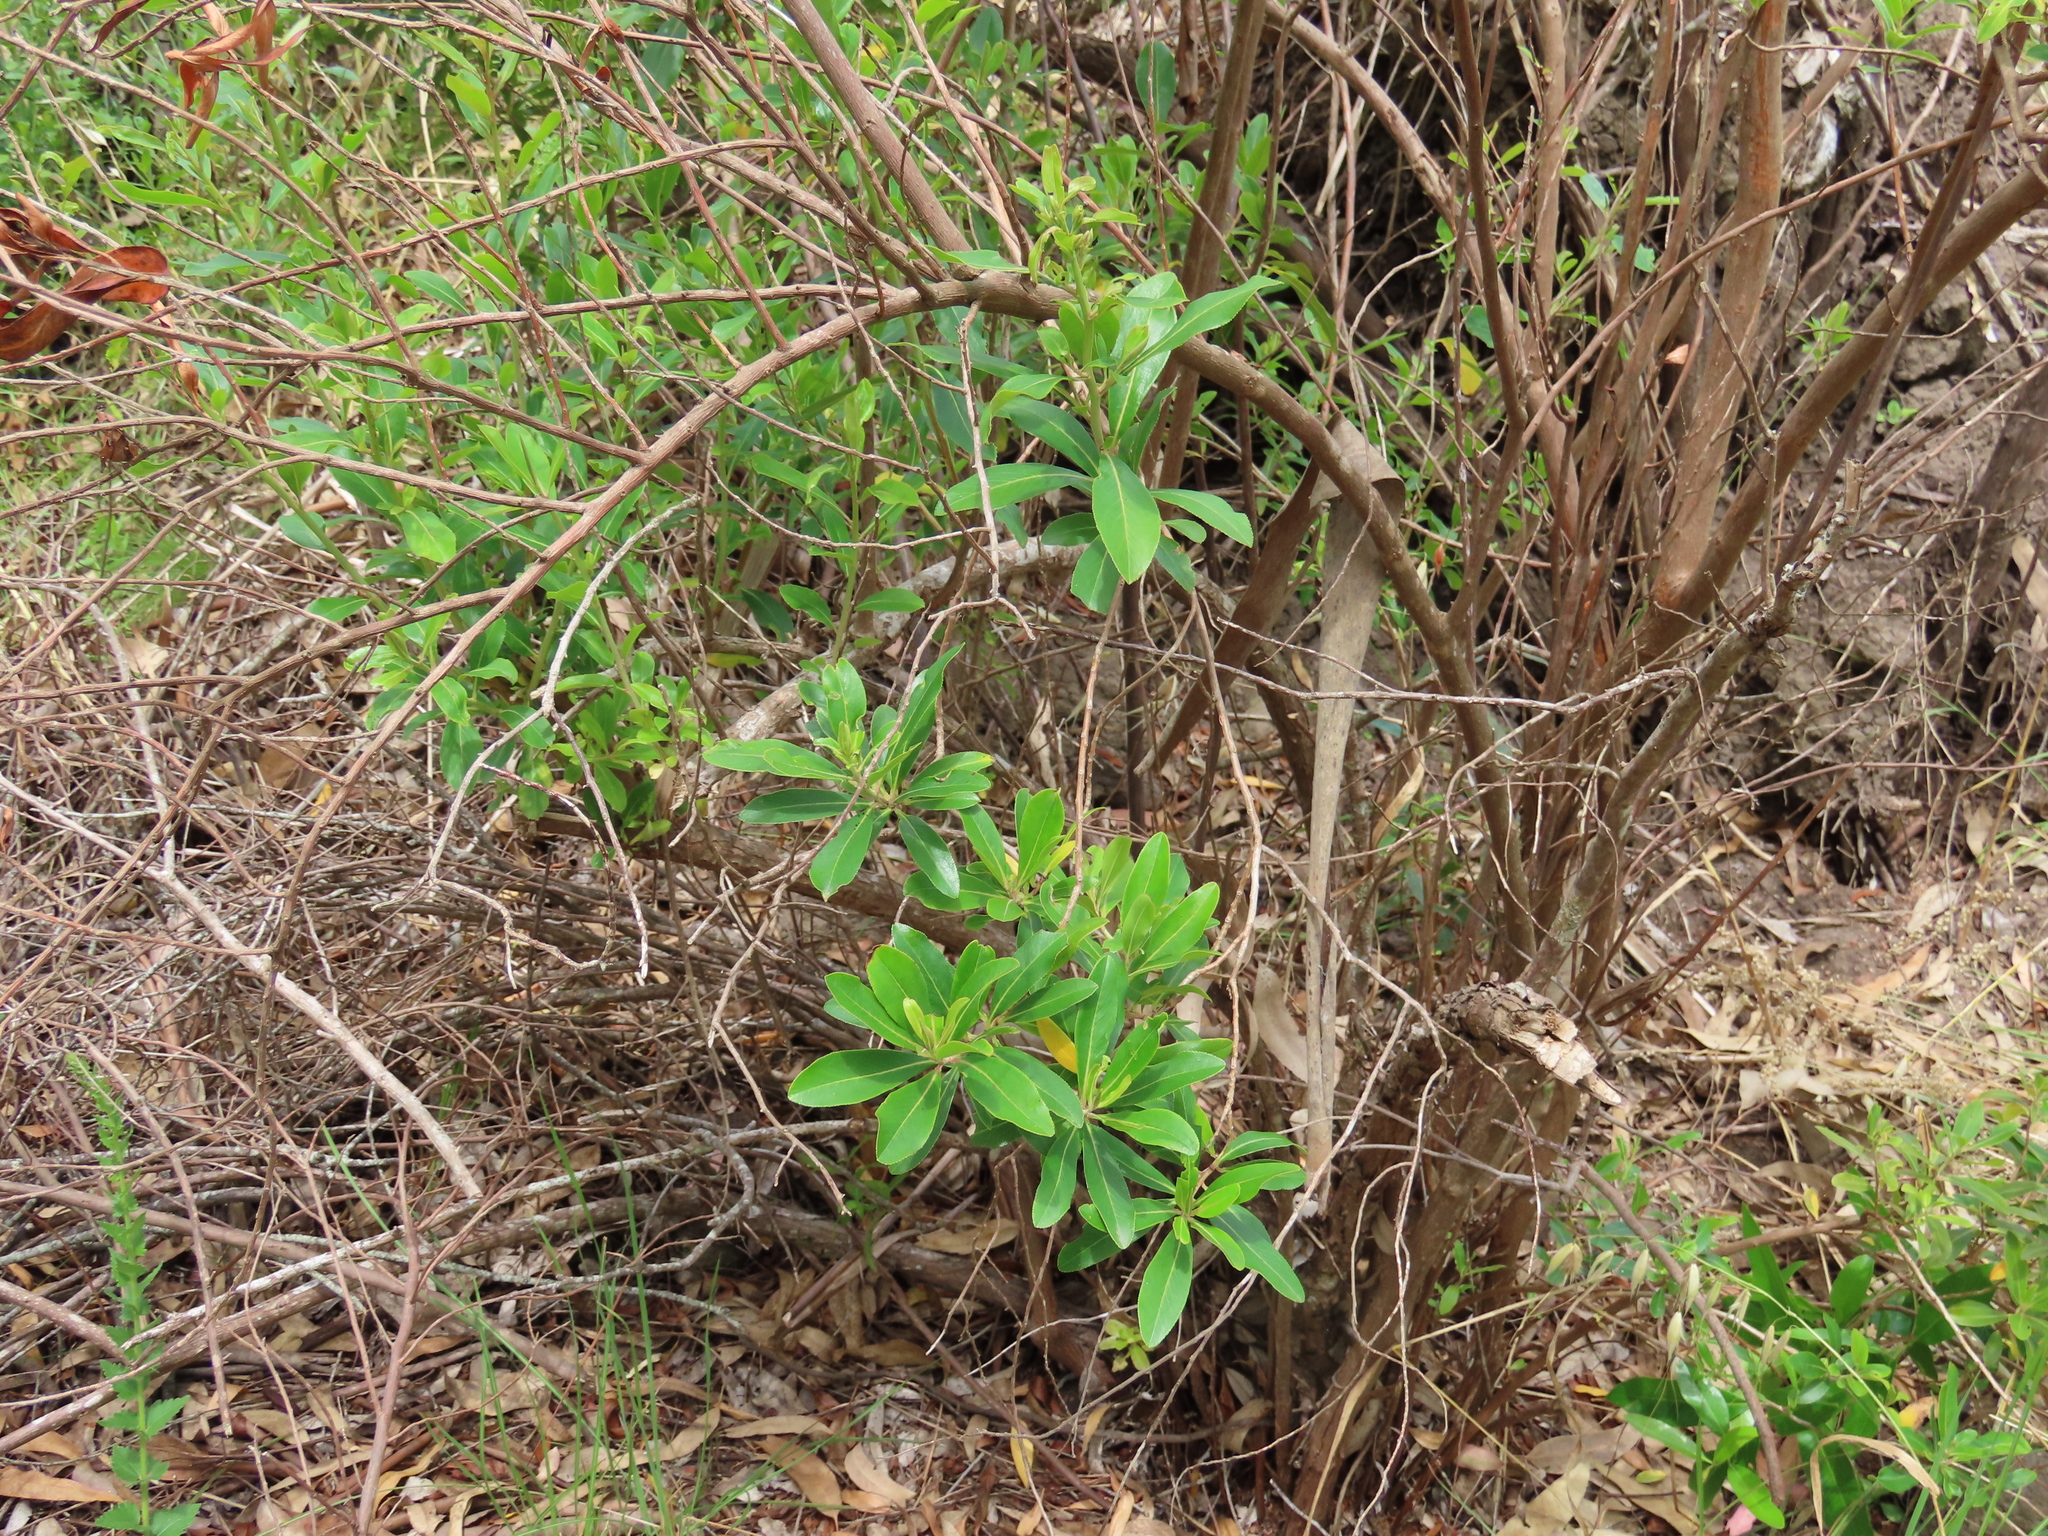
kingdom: Plantae
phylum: Tracheophyta
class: Magnoliopsida
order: Escalloniales
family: Escalloniaceae
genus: Escallonia
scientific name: Escallonia bifida
